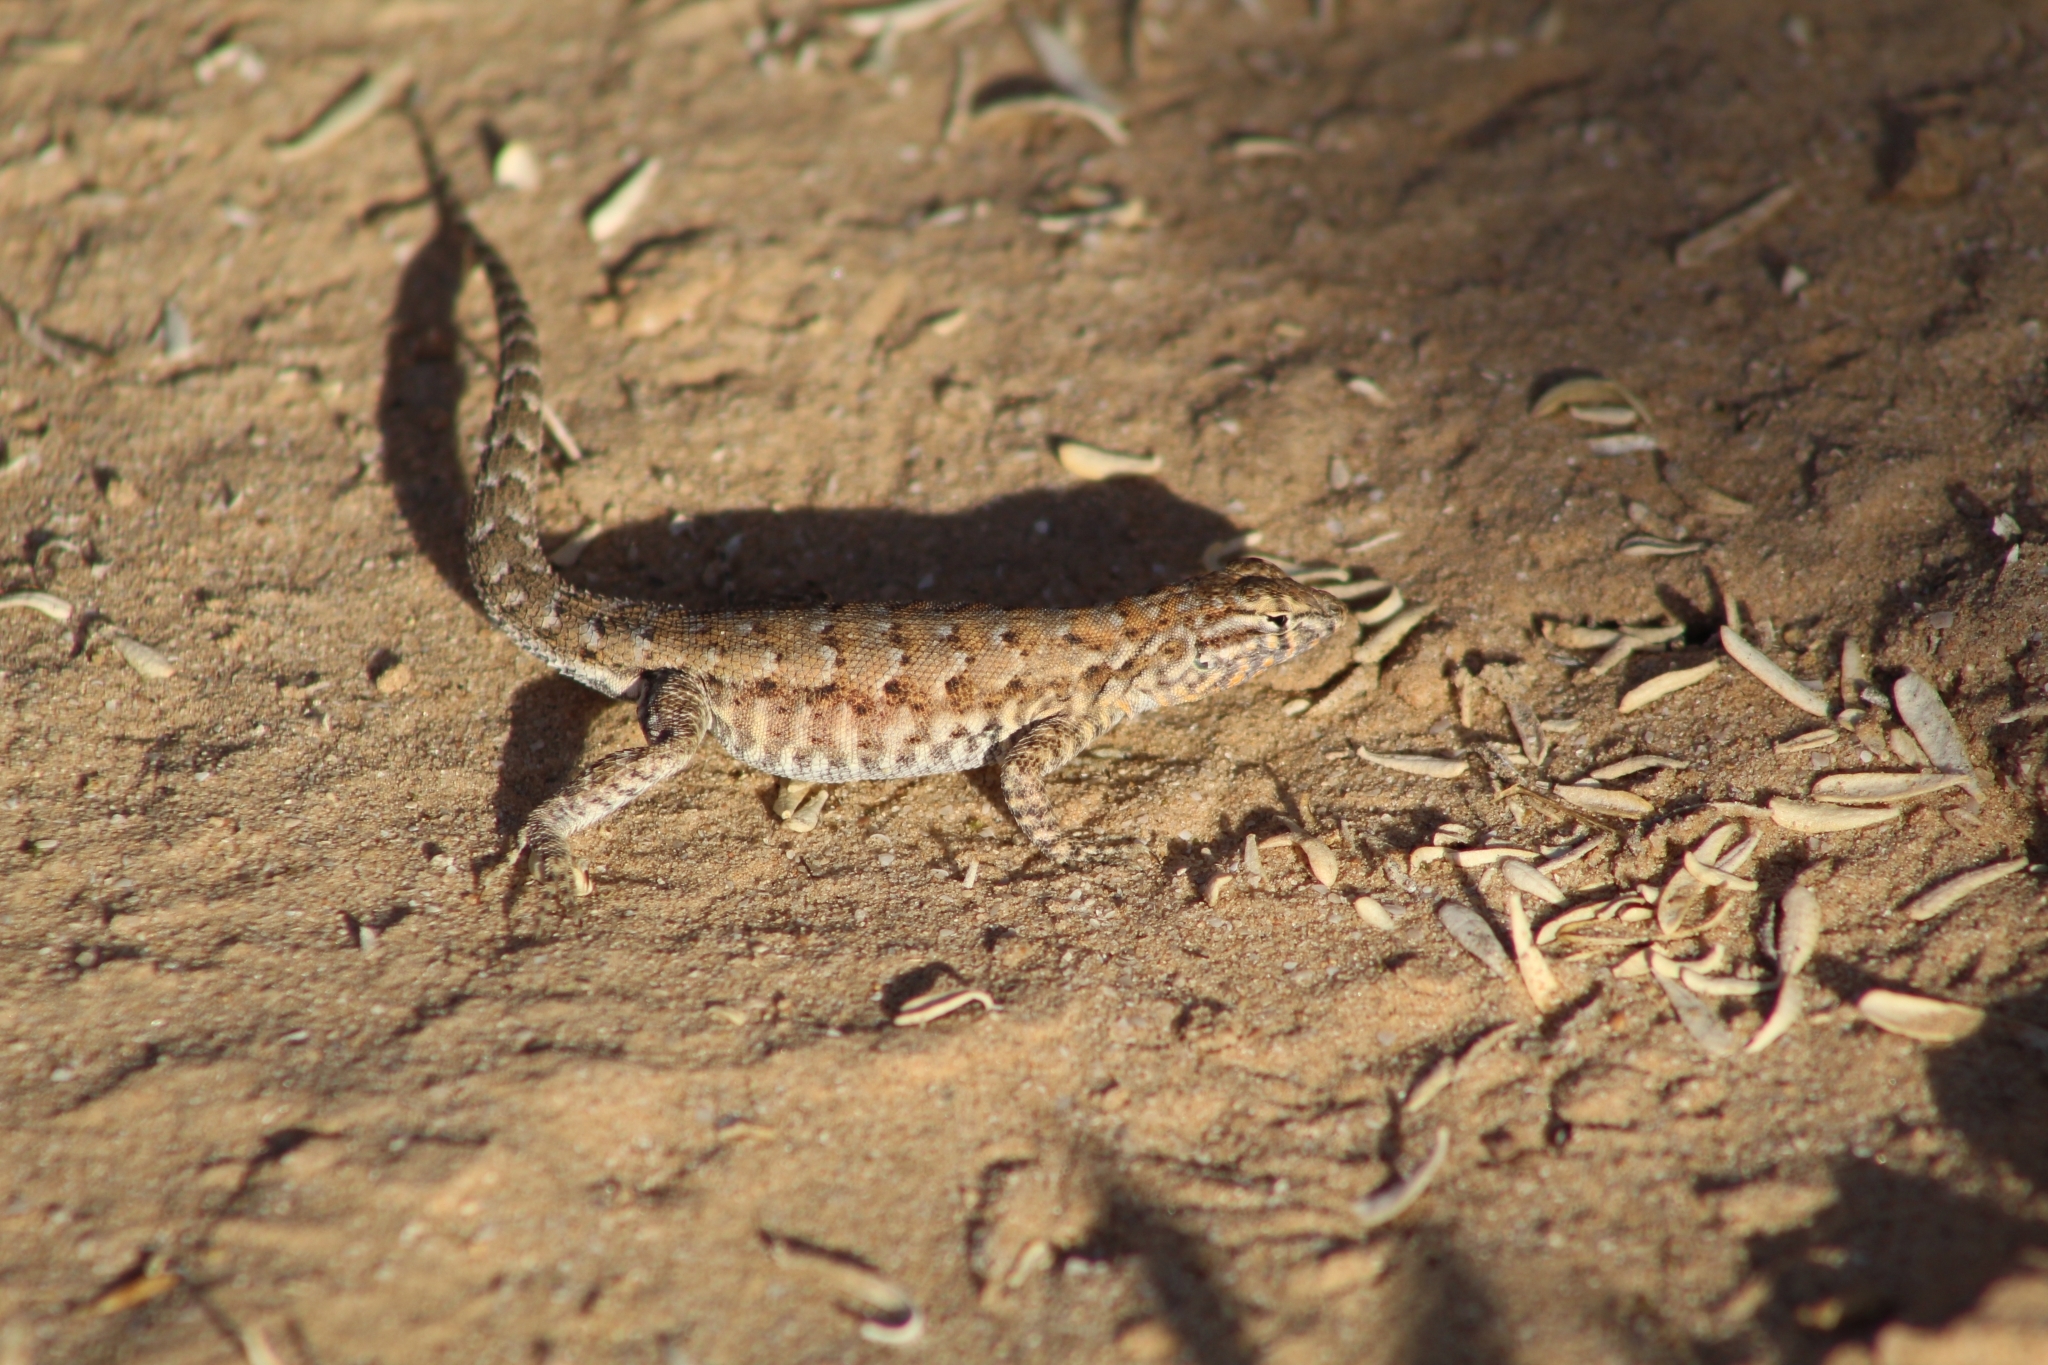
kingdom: Animalia
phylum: Chordata
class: Squamata
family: Phrynosomatidae
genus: Uta
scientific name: Uta stansburiana
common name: Side-blotched lizard
